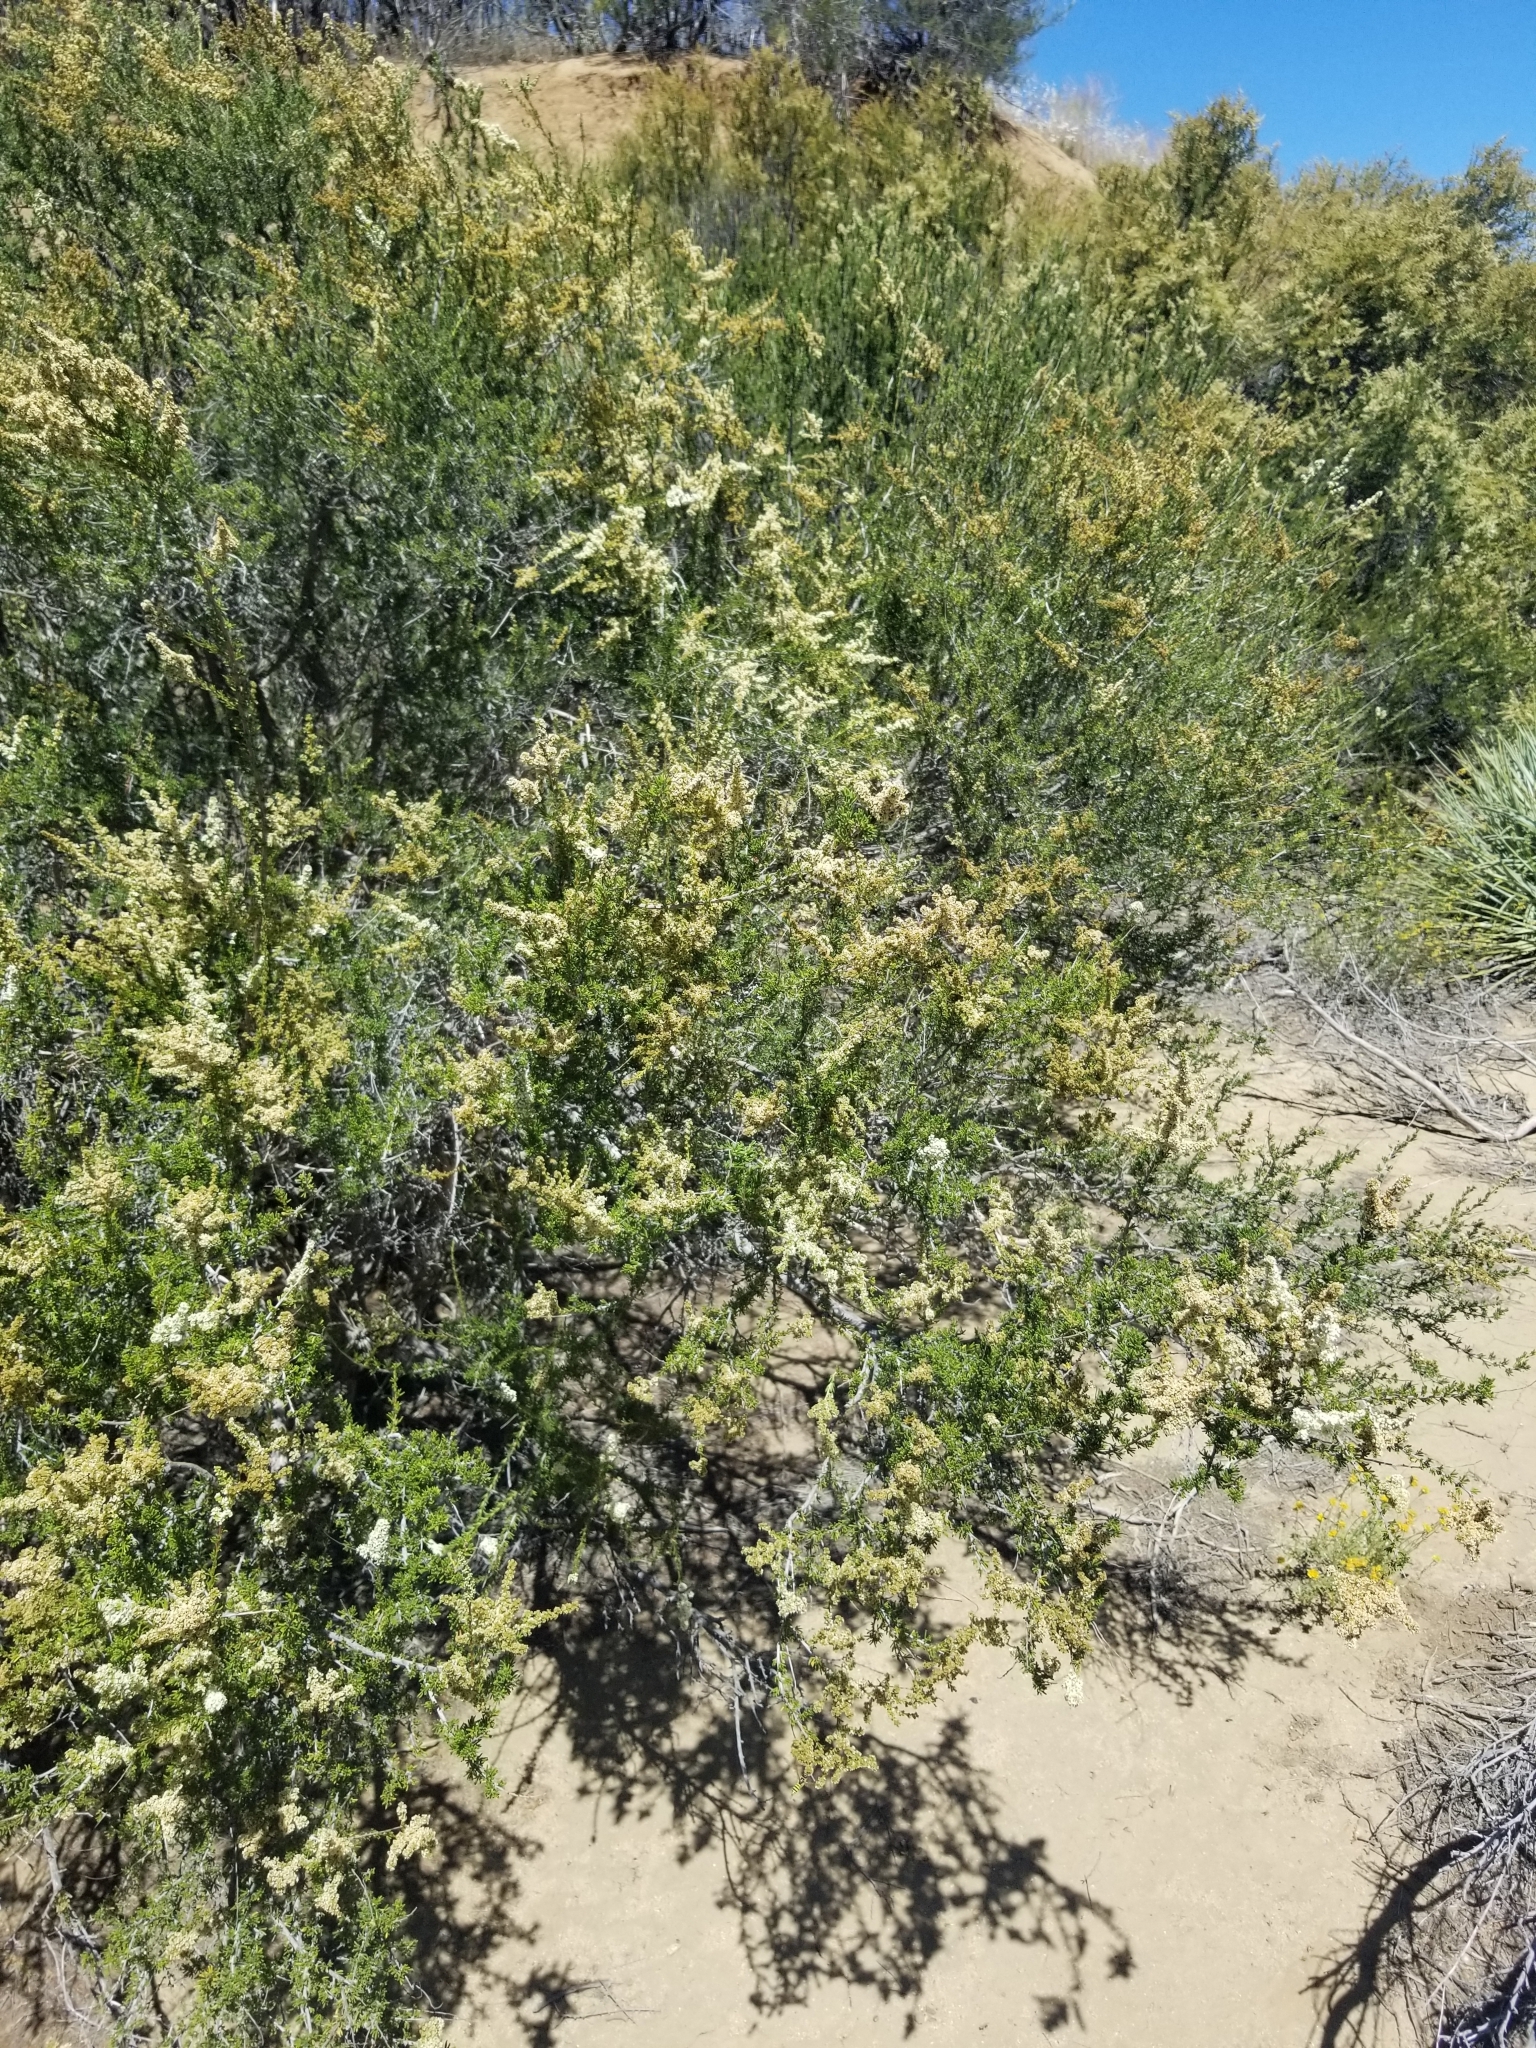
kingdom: Plantae
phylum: Tracheophyta
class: Magnoliopsida
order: Rosales
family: Rosaceae
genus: Adenostoma
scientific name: Adenostoma fasciculatum
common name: Chamise
